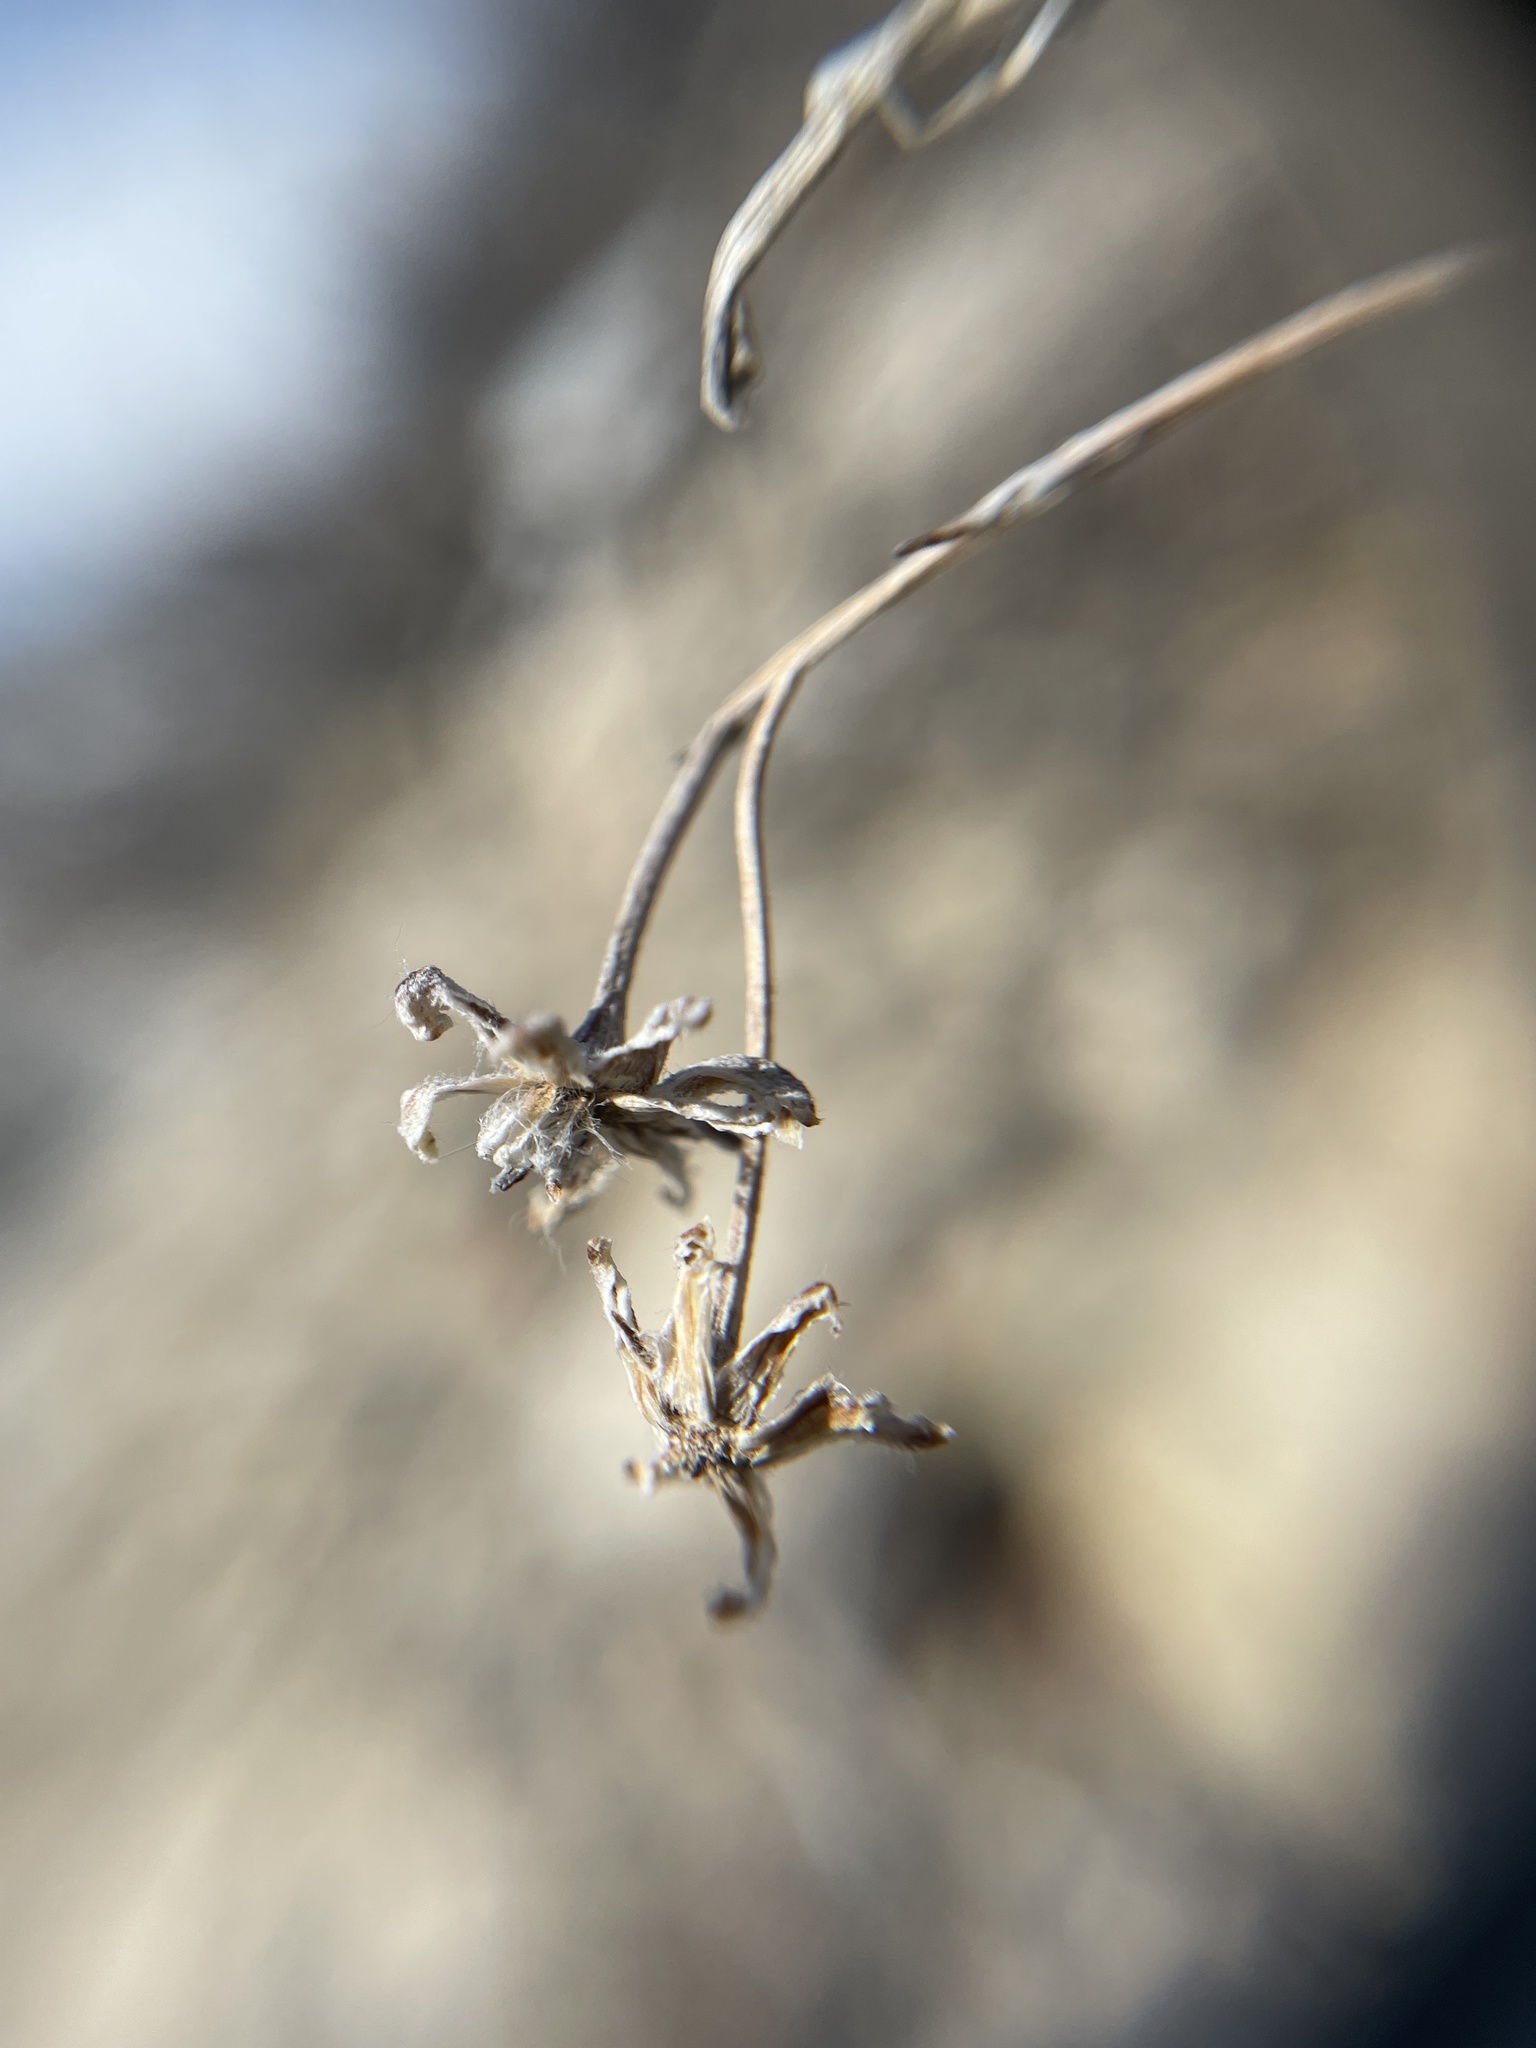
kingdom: Plantae
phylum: Tracheophyta
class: Magnoliopsida
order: Asterales
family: Asteraceae
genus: Hymenopappus
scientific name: Hymenopappus filifolius
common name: Columbia cutleaf
